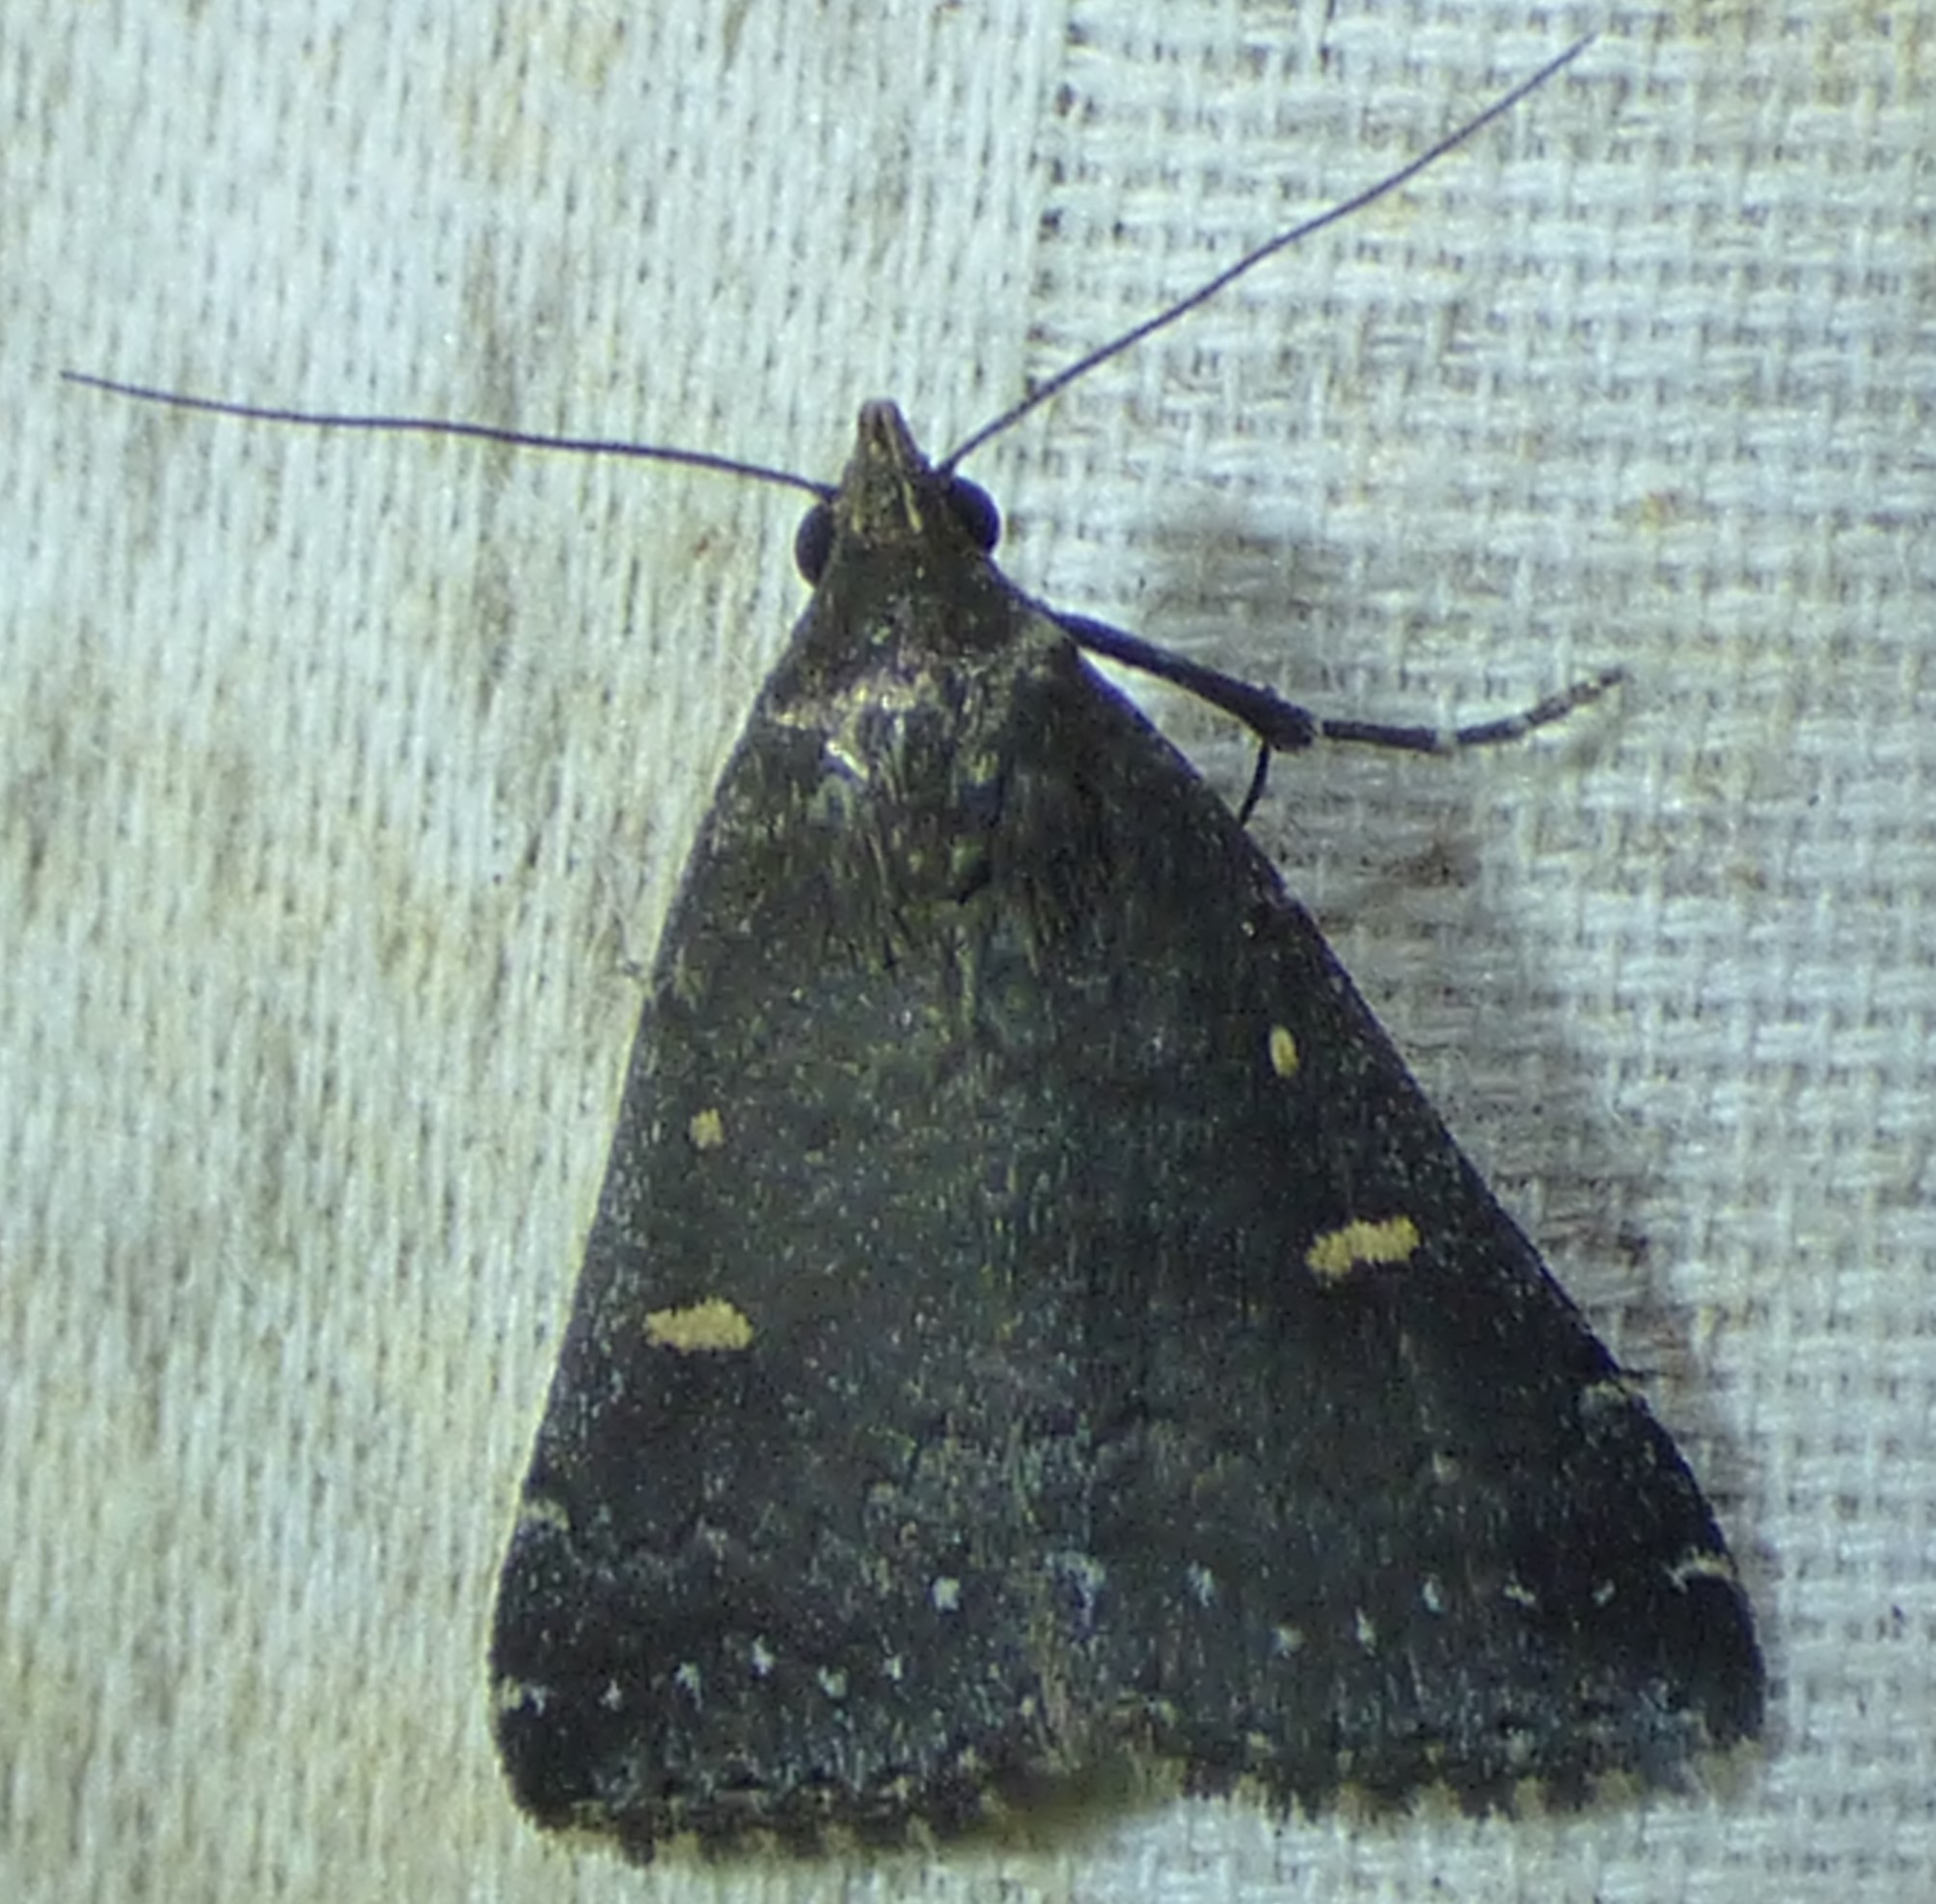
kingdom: Animalia
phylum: Arthropoda
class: Insecta
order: Lepidoptera
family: Erebidae
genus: Tetanolita
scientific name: Tetanolita mynesalis
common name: Smoky tetanolita moth
